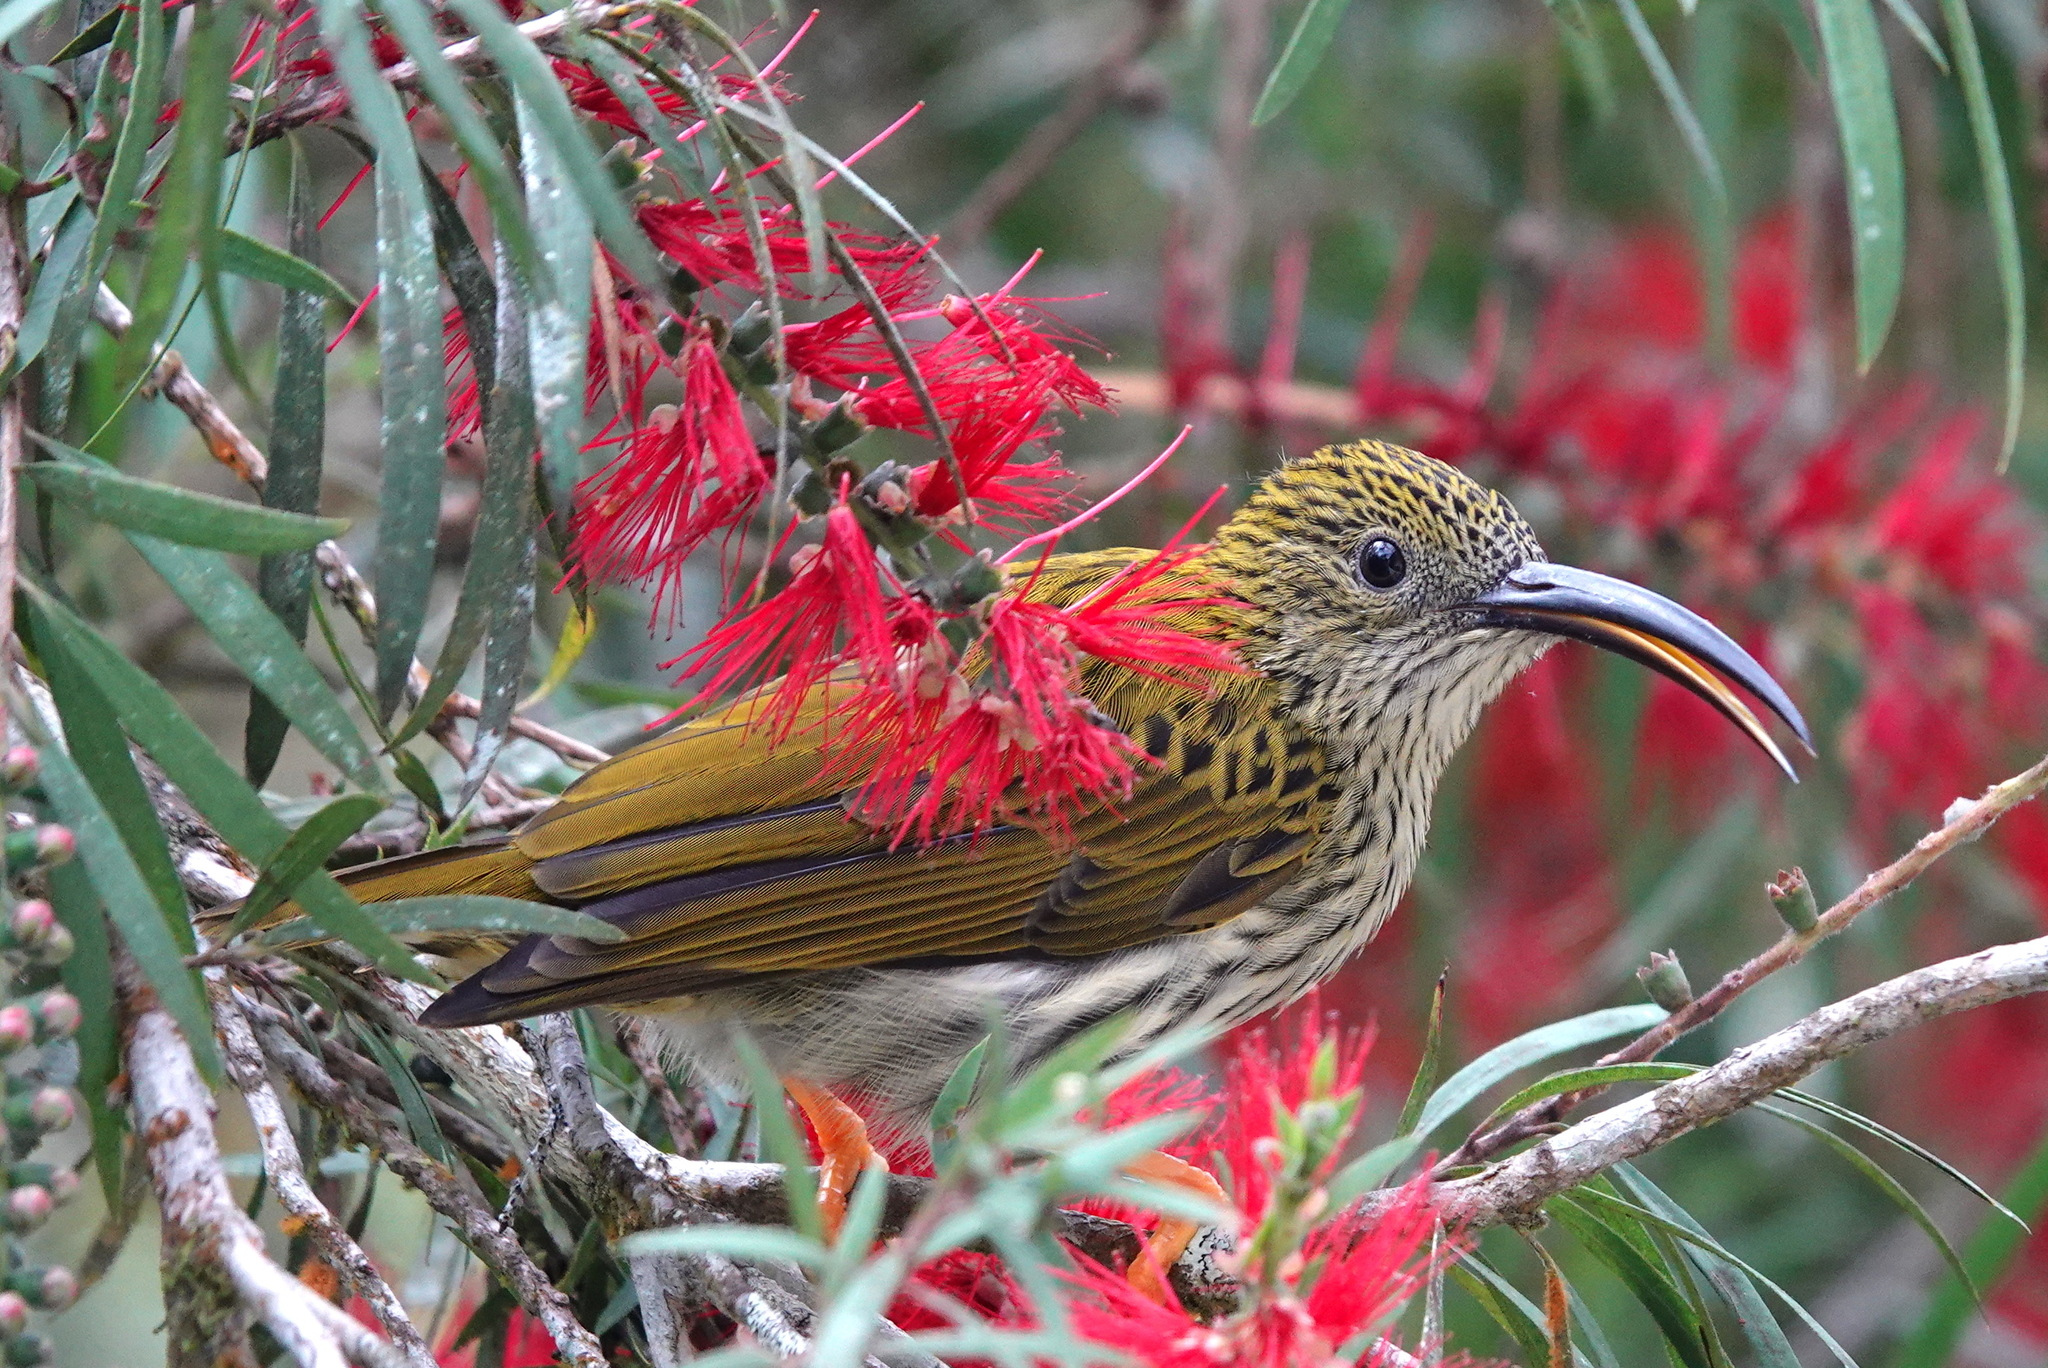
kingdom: Animalia
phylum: Chordata
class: Aves
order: Passeriformes
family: Nectariniidae
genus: Arachnothera
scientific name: Arachnothera magna
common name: Streaked spiderhunter
